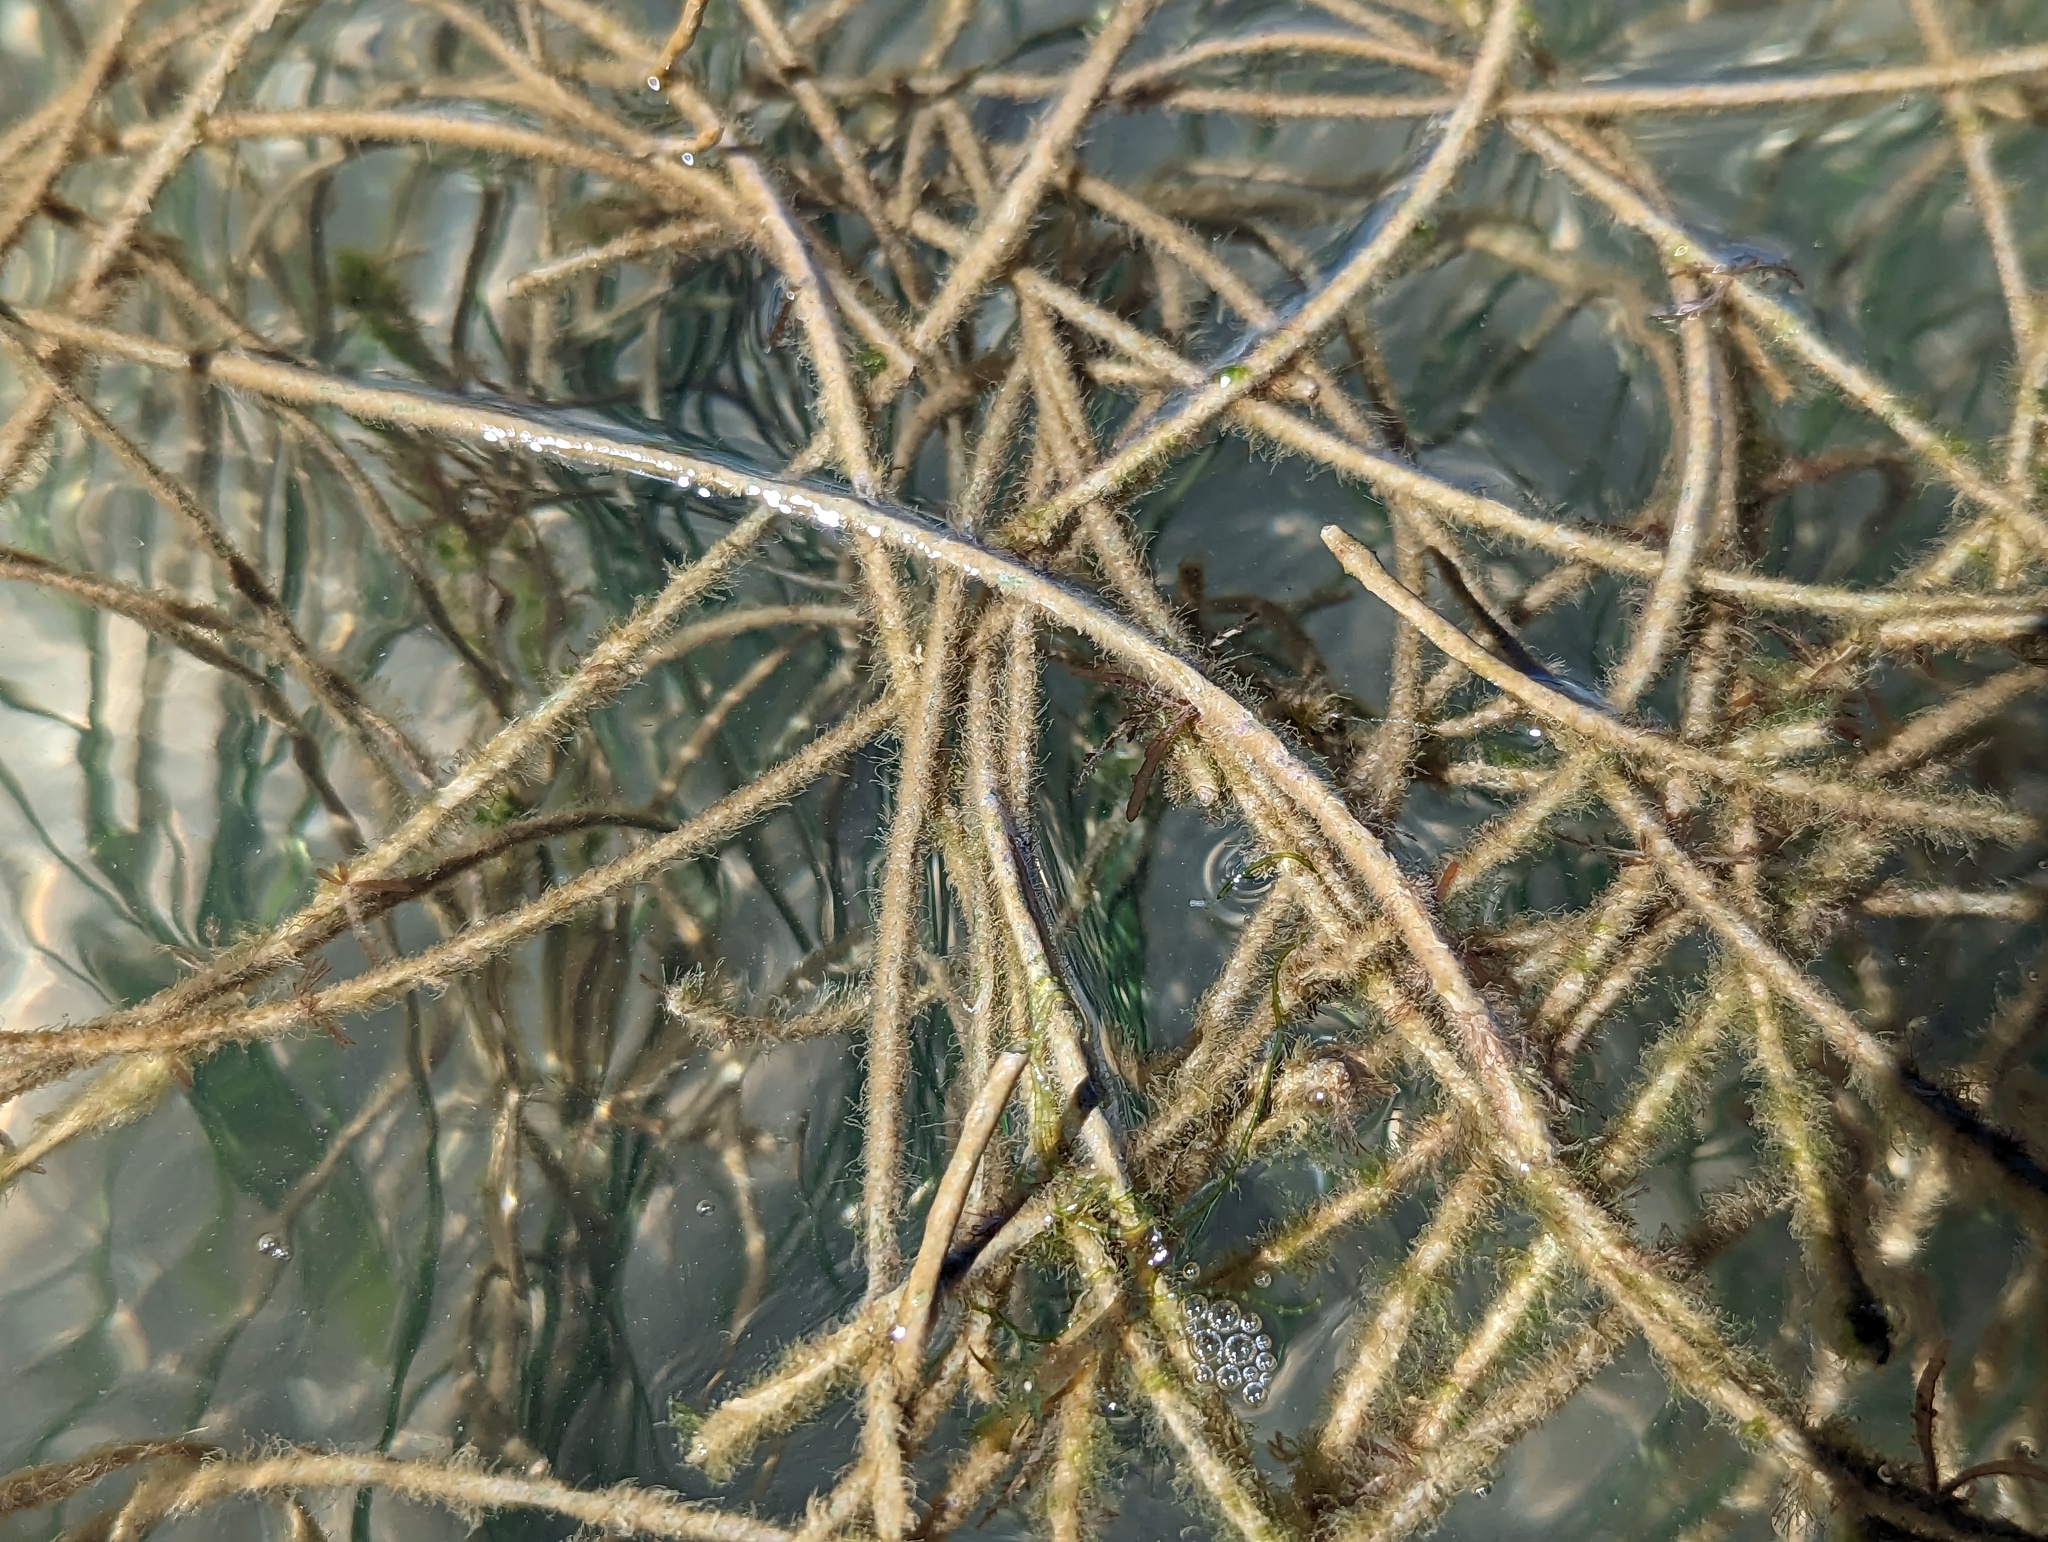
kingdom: Plantae
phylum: Tracheophyta
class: Liliopsida
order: Alismatales
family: Cymodoceaceae
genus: Syringodium
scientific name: Syringodium filiforme
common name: Manatee grass
